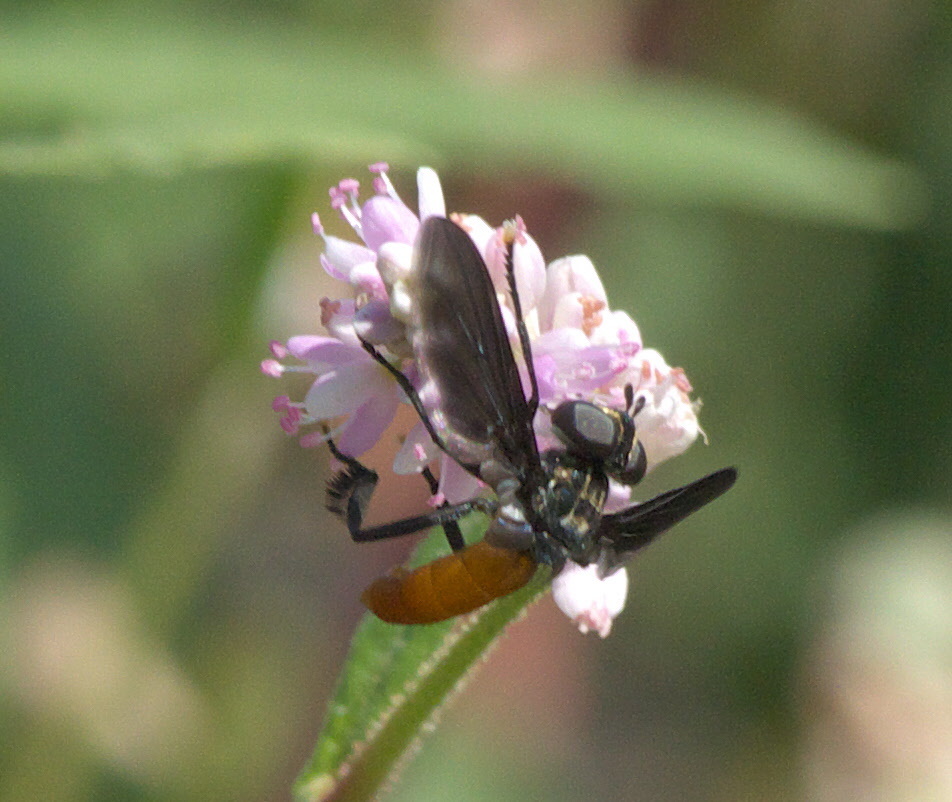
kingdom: Animalia
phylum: Arthropoda
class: Insecta
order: Diptera
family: Tachinidae
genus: Trichopoda
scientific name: Trichopoda pennipes
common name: Tachinid fly
